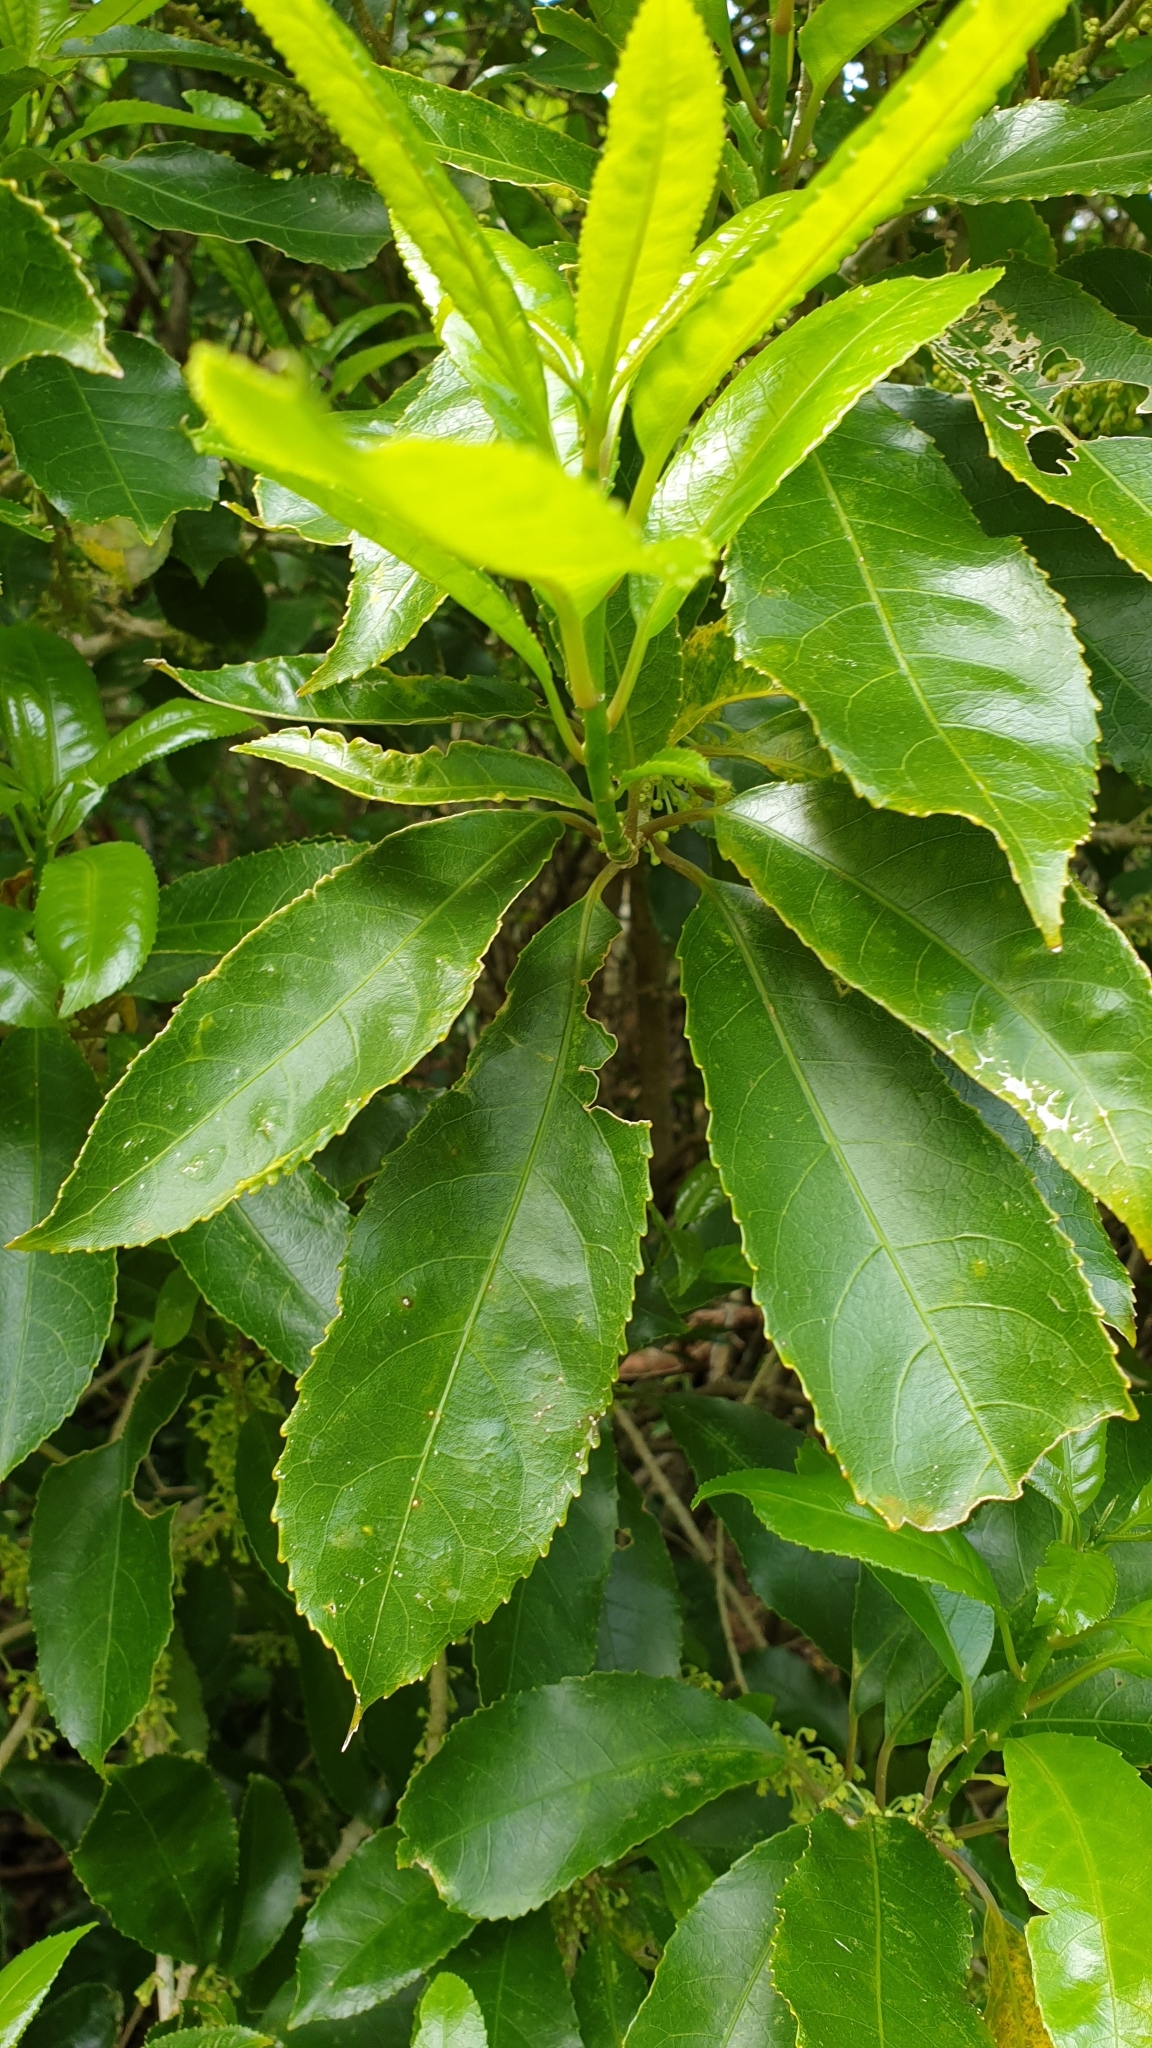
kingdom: Plantae
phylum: Tracheophyta
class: Magnoliopsida
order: Malpighiales
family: Violaceae
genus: Melicytus
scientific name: Melicytus ramiflorus
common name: Mahoe
